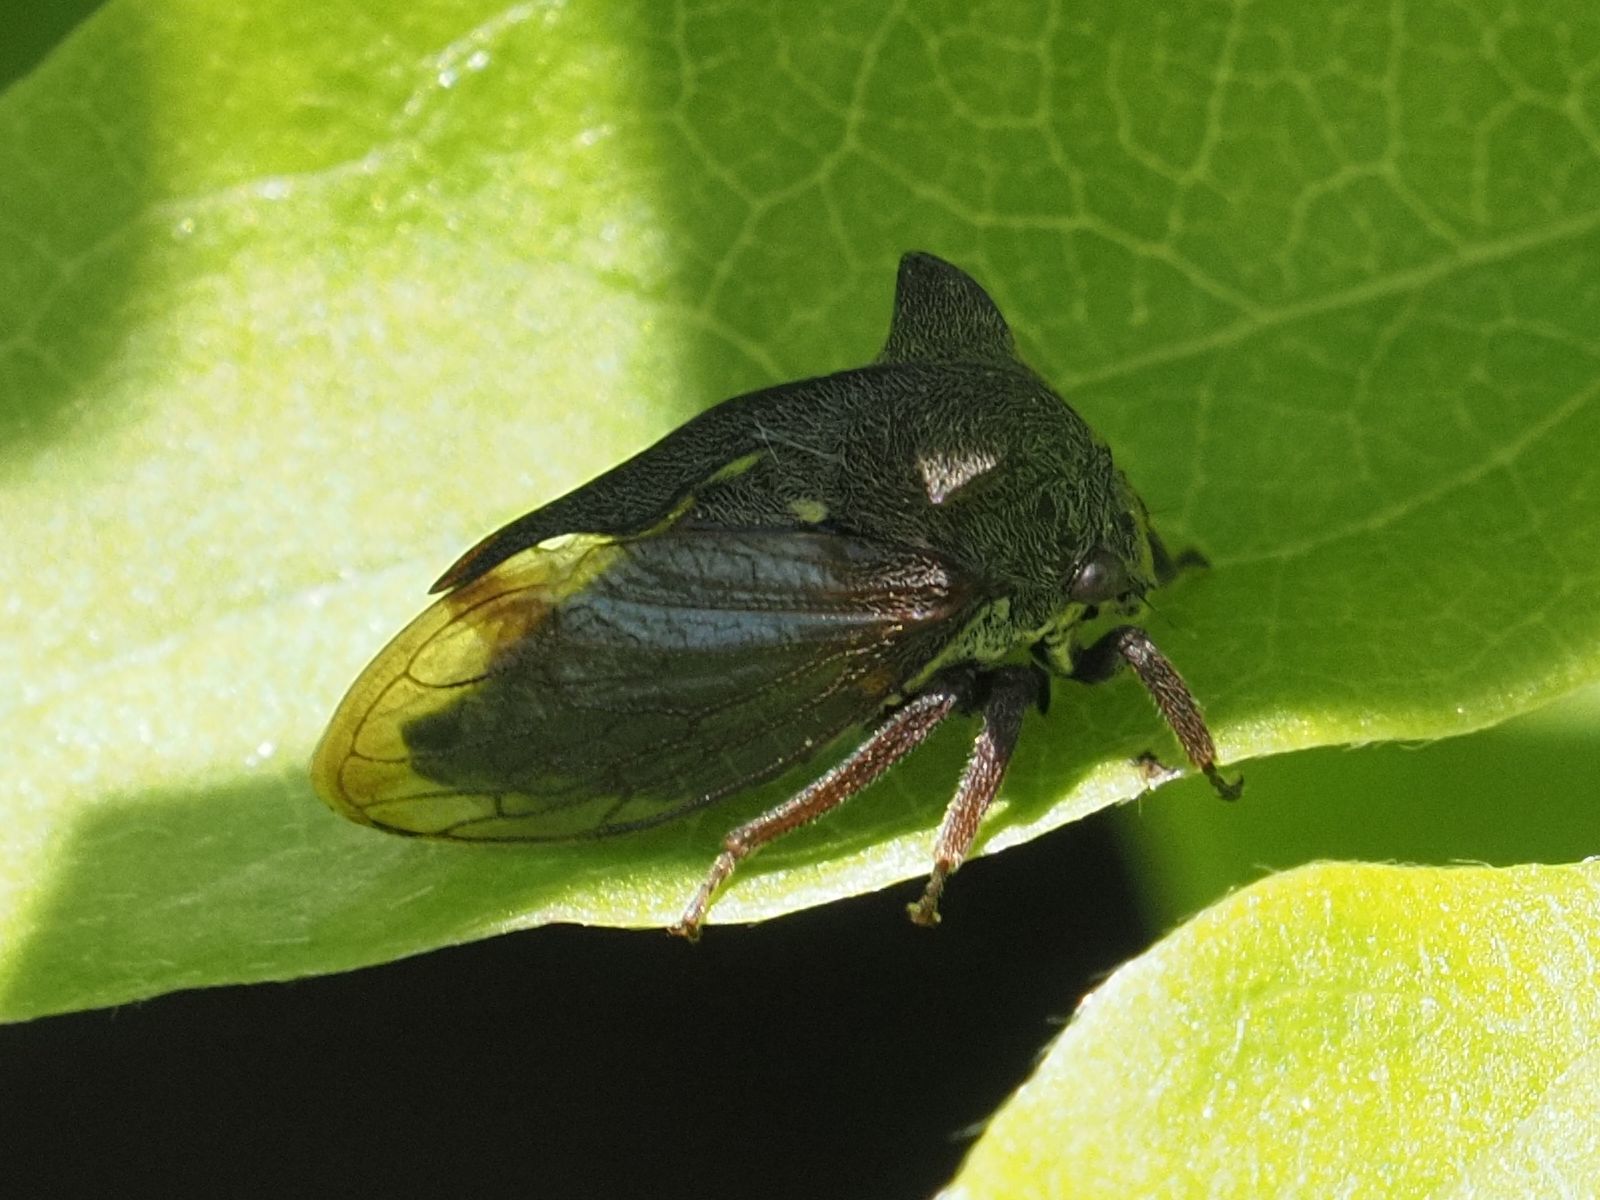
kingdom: Animalia
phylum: Arthropoda
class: Insecta
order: Hemiptera
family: Membracidae
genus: Centrotus
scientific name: Centrotus cornuta
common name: Treehopper
